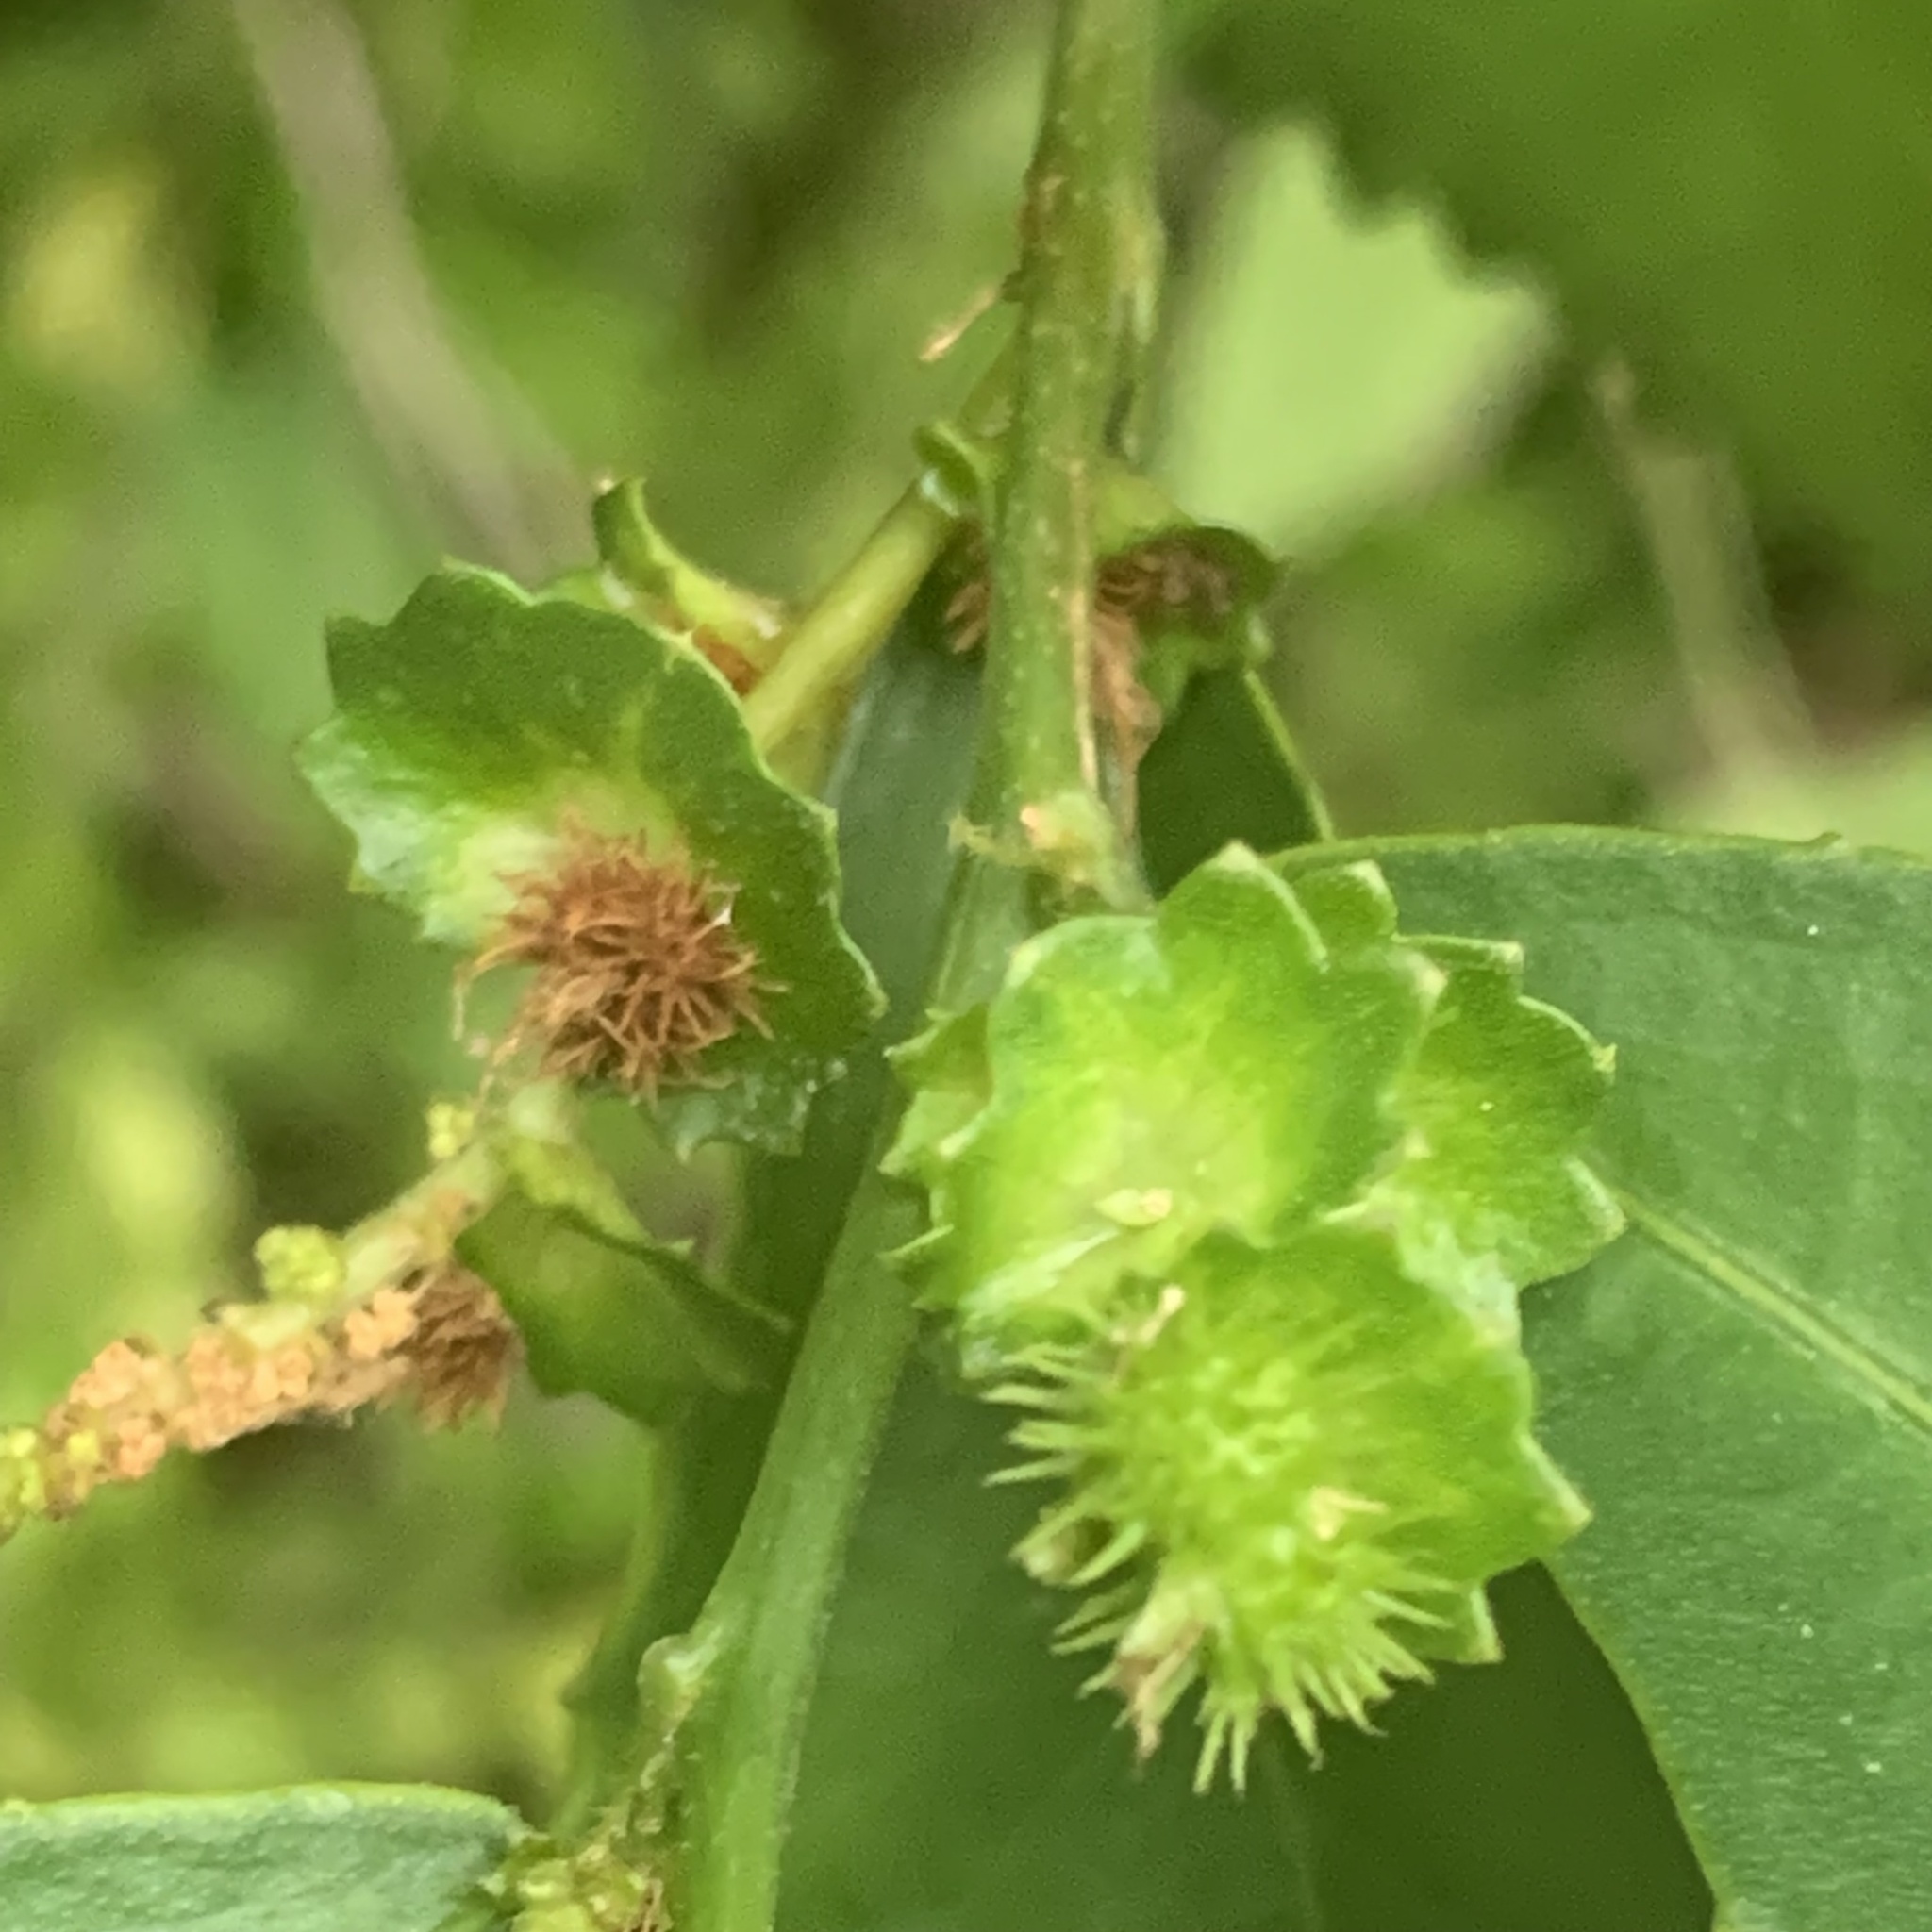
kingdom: Plantae
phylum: Tracheophyta
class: Magnoliopsida
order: Malpighiales
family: Euphorbiaceae
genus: Acalypha
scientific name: Acalypha siamensis
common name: Wild tea
